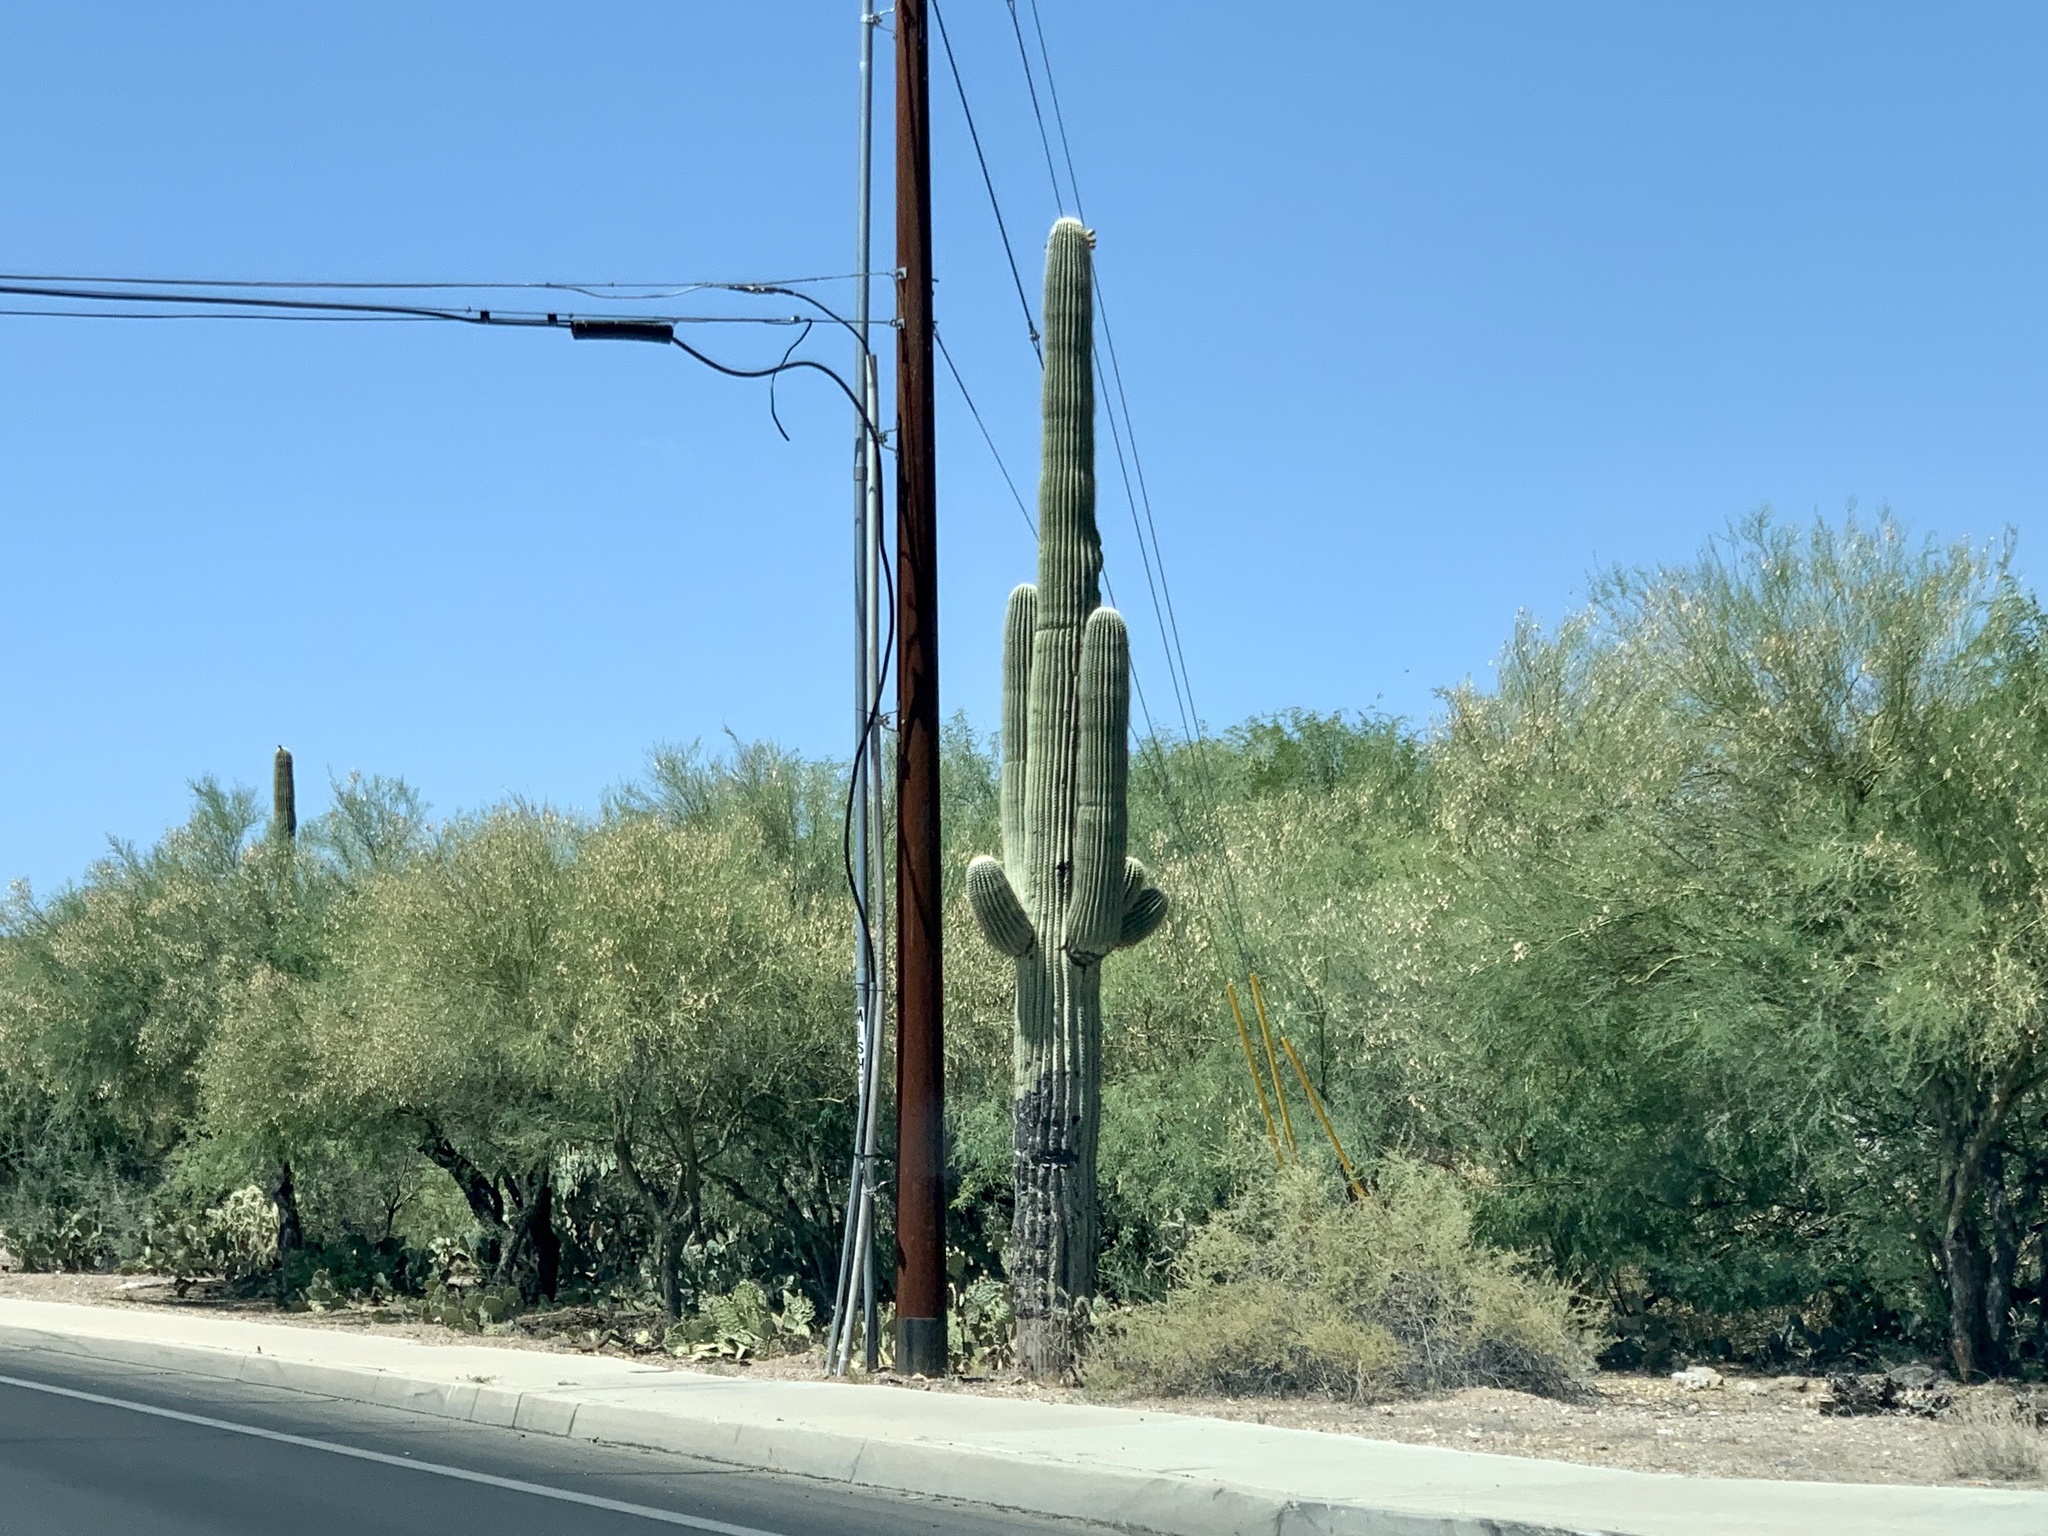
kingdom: Plantae
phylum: Tracheophyta
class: Magnoliopsida
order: Caryophyllales
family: Cactaceae
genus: Carnegiea
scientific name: Carnegiea gigantea
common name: Saguaro
